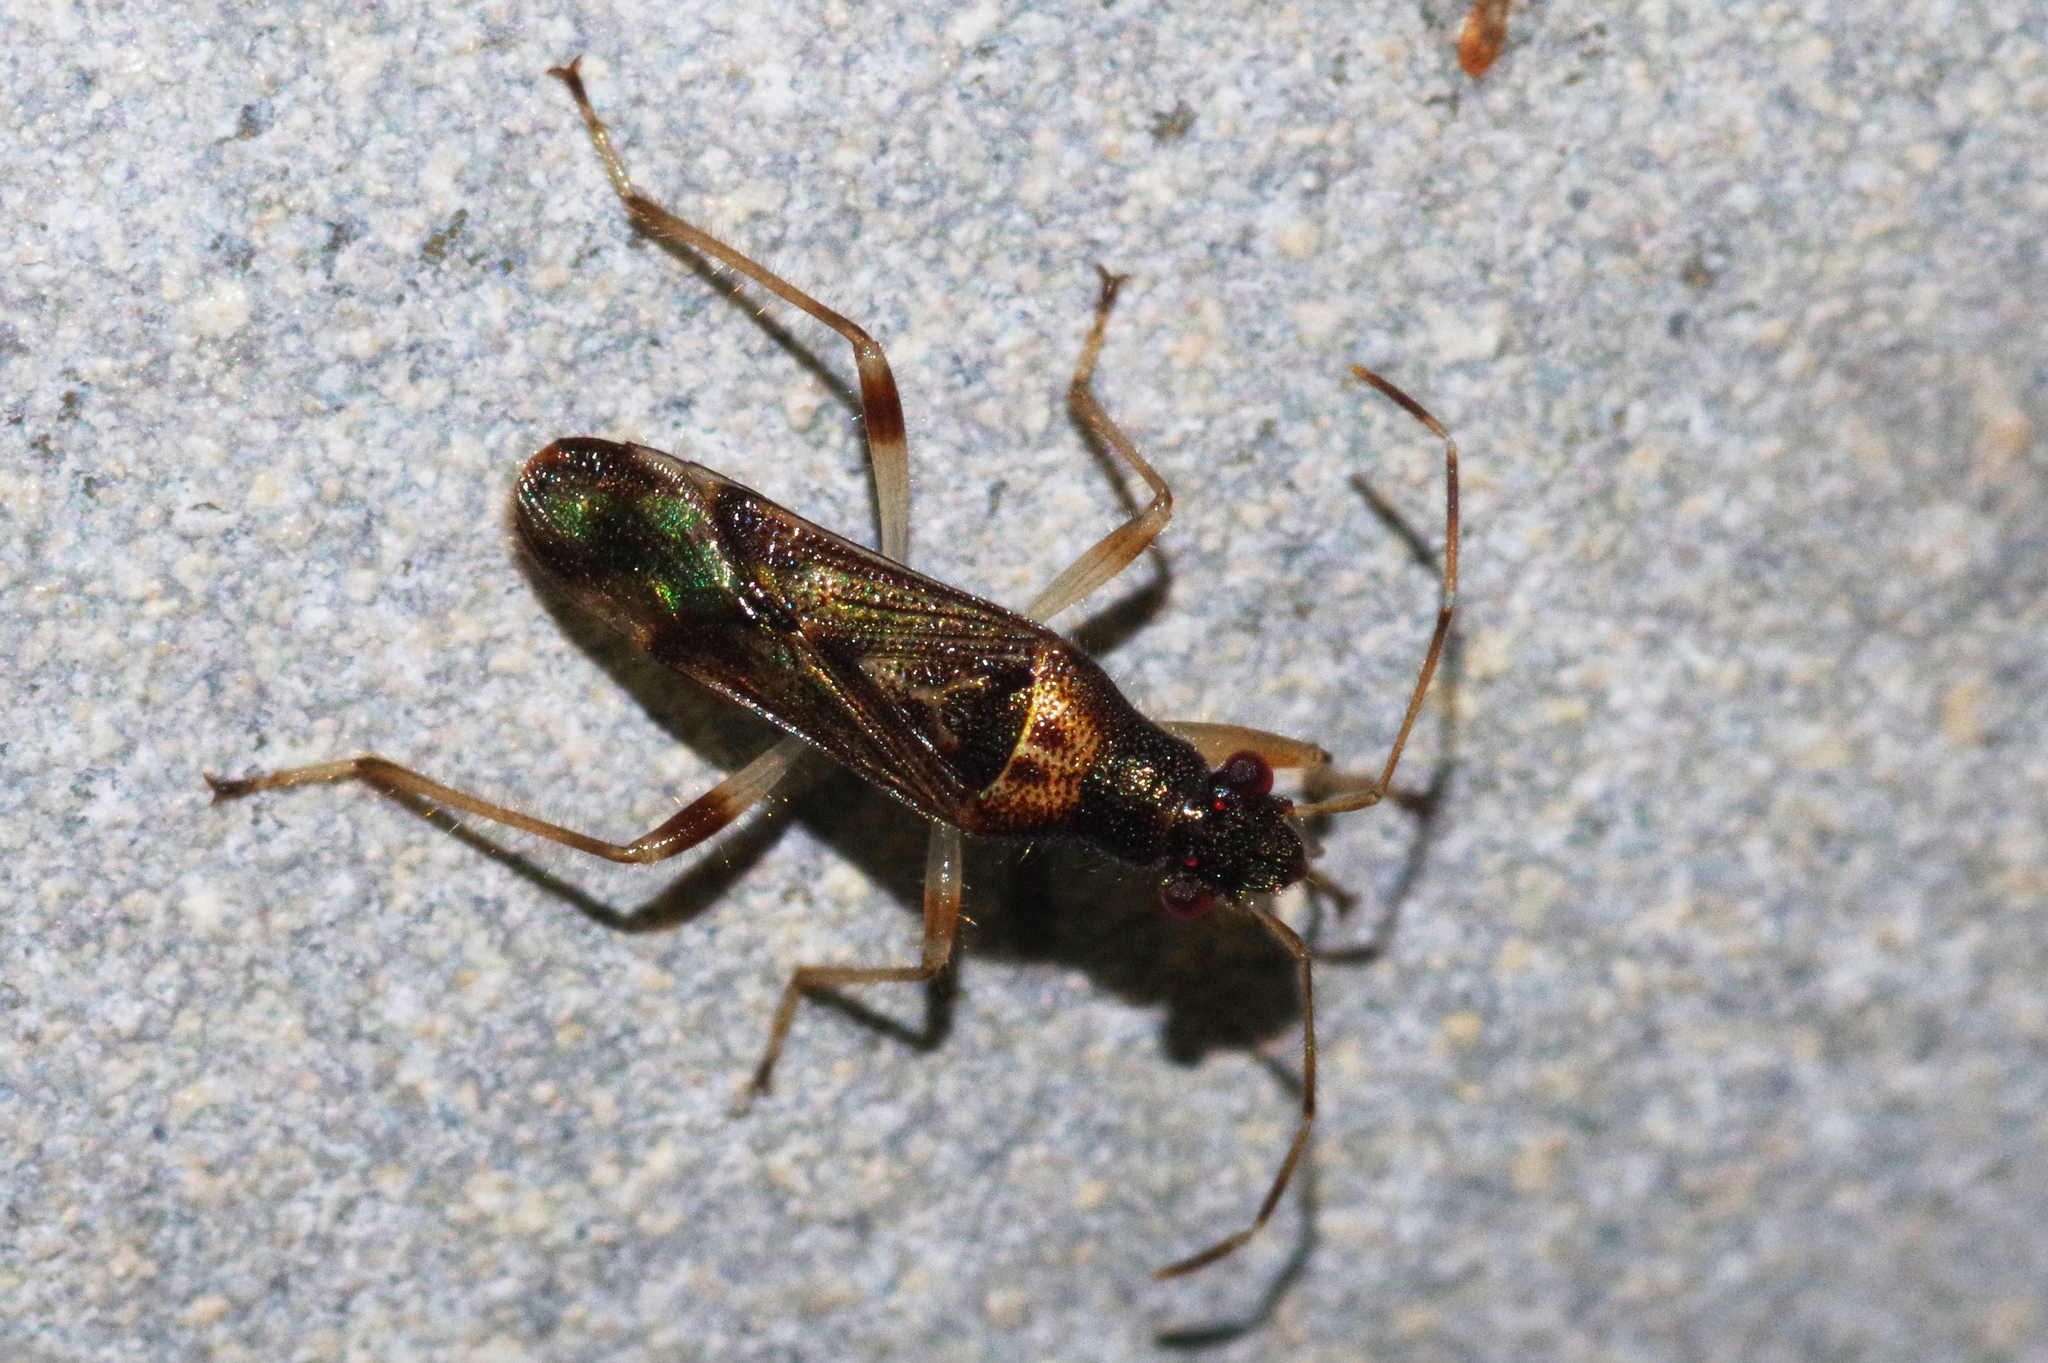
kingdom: Animalia
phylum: Arthropoda
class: Insecta
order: Hemiptera
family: Heterogastridae
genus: Parathyginus
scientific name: Parathyginus signifer
